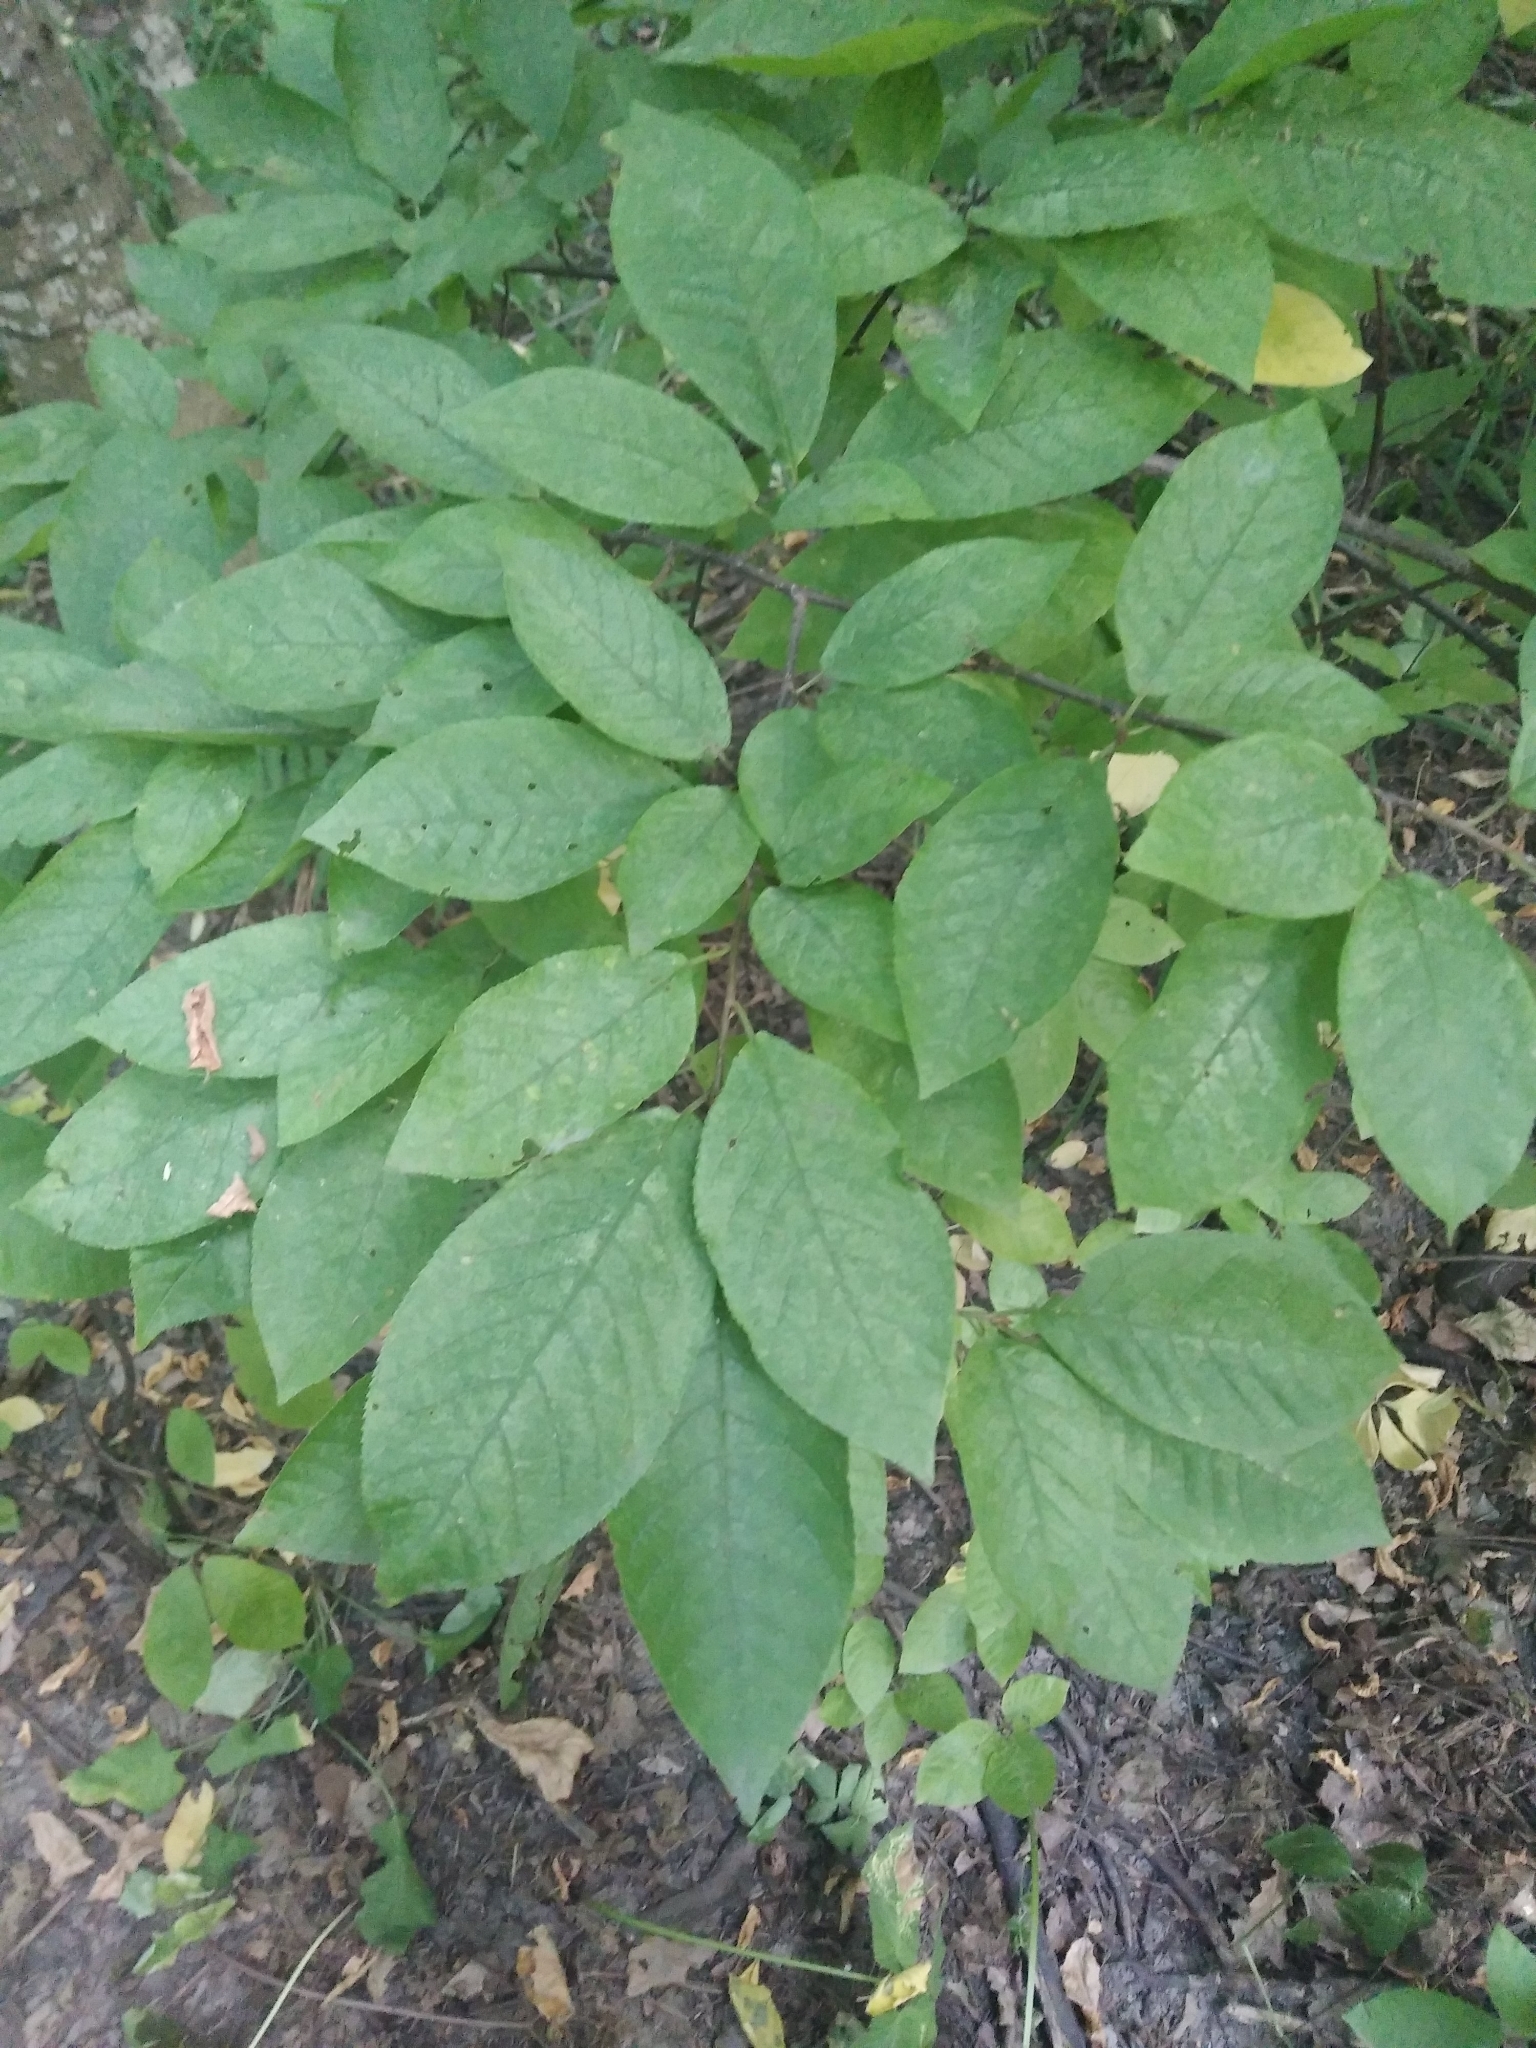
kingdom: Plantae
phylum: Tracheophyta
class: Magnoliopsida
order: Rosales
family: Rosaceae
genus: Prunus
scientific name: Prunus padus
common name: Bird cherry
